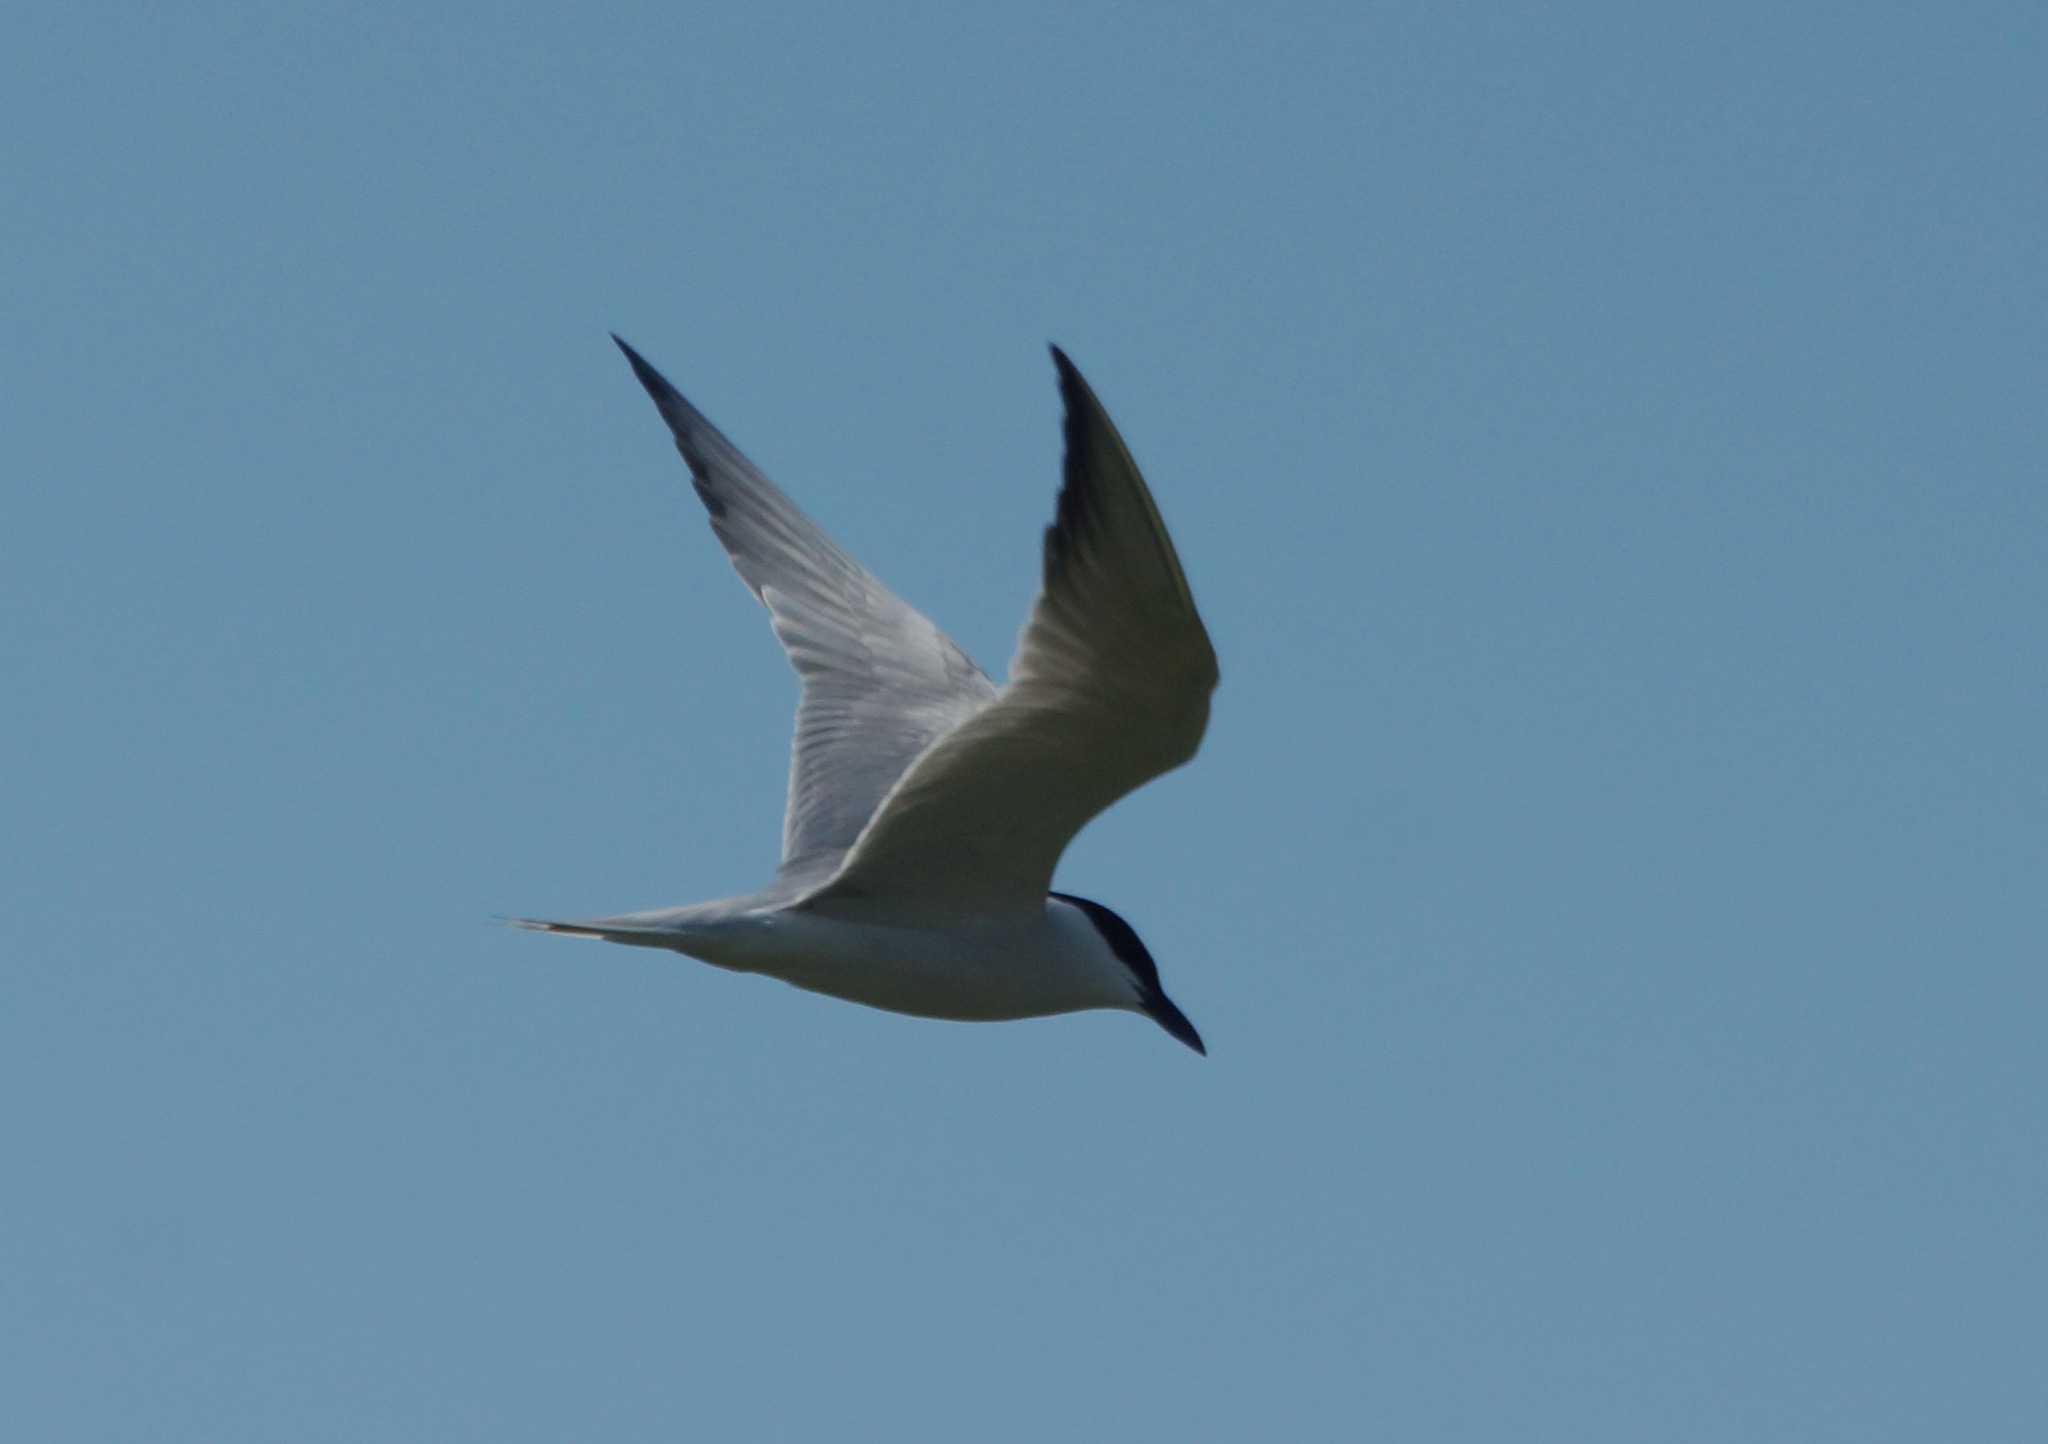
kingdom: Animalia
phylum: Chordata
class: Aves
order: Charadriiformes
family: Laridae
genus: Gelochelidon
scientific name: Gelochelidon nilotica
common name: Gull-billed tern
